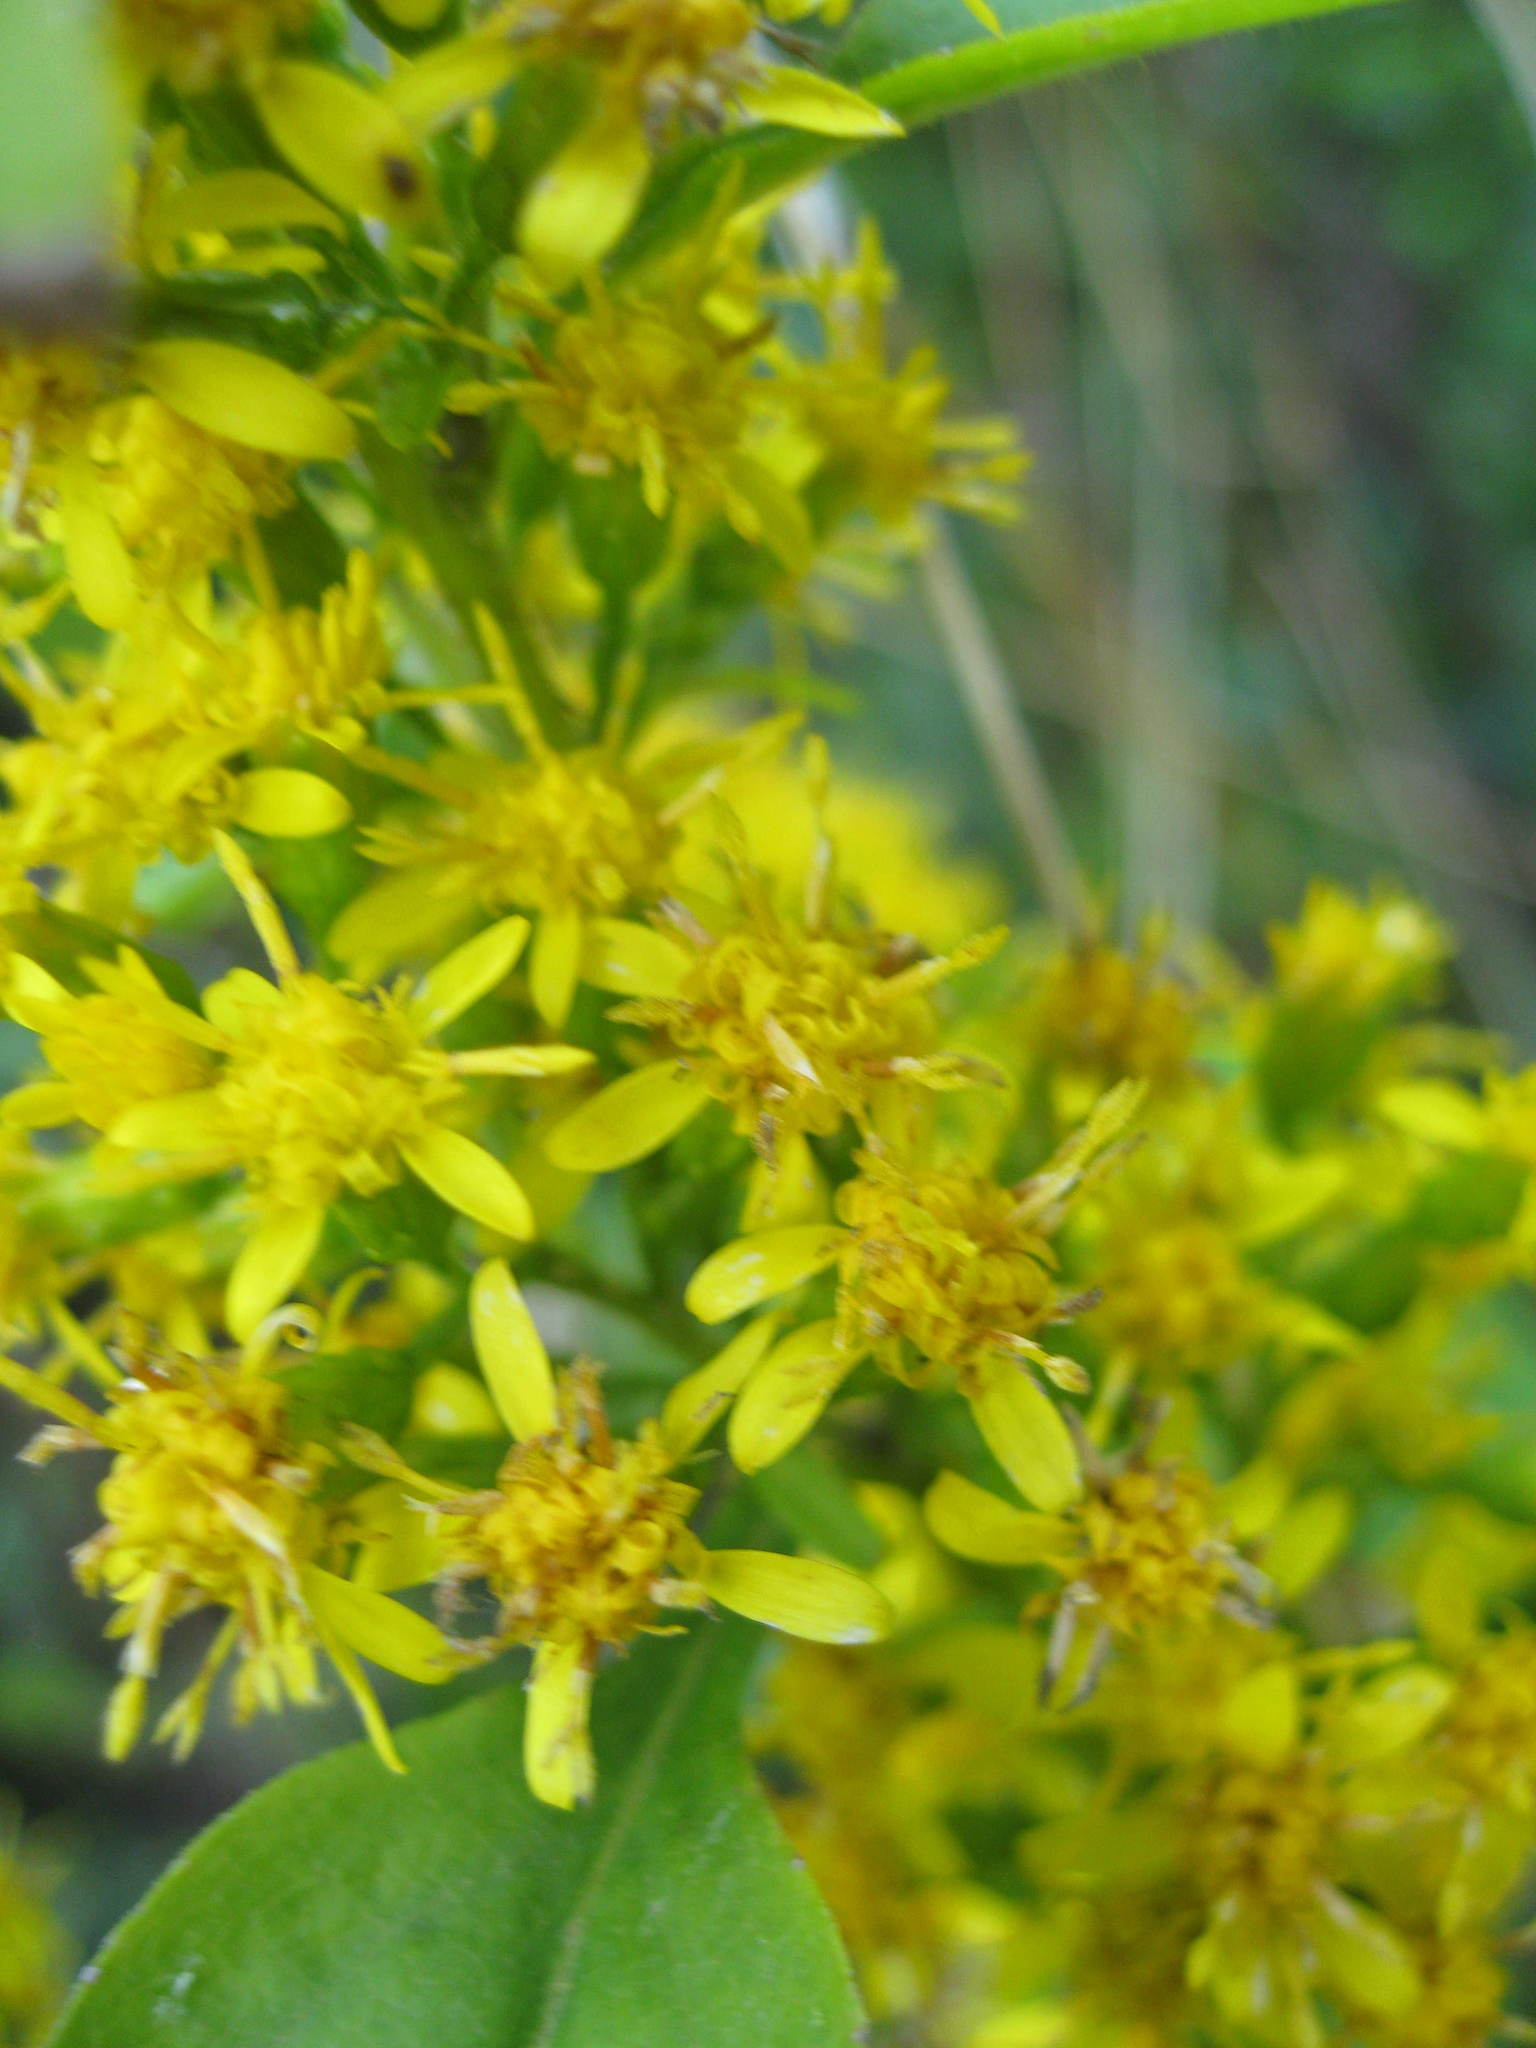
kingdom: Plantae
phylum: Tracheophyta
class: Magnoliopsida
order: Asterales
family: Asteraceae
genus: Solidago
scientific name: Solidago flexicaulis
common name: Zig-zag goldenrod
